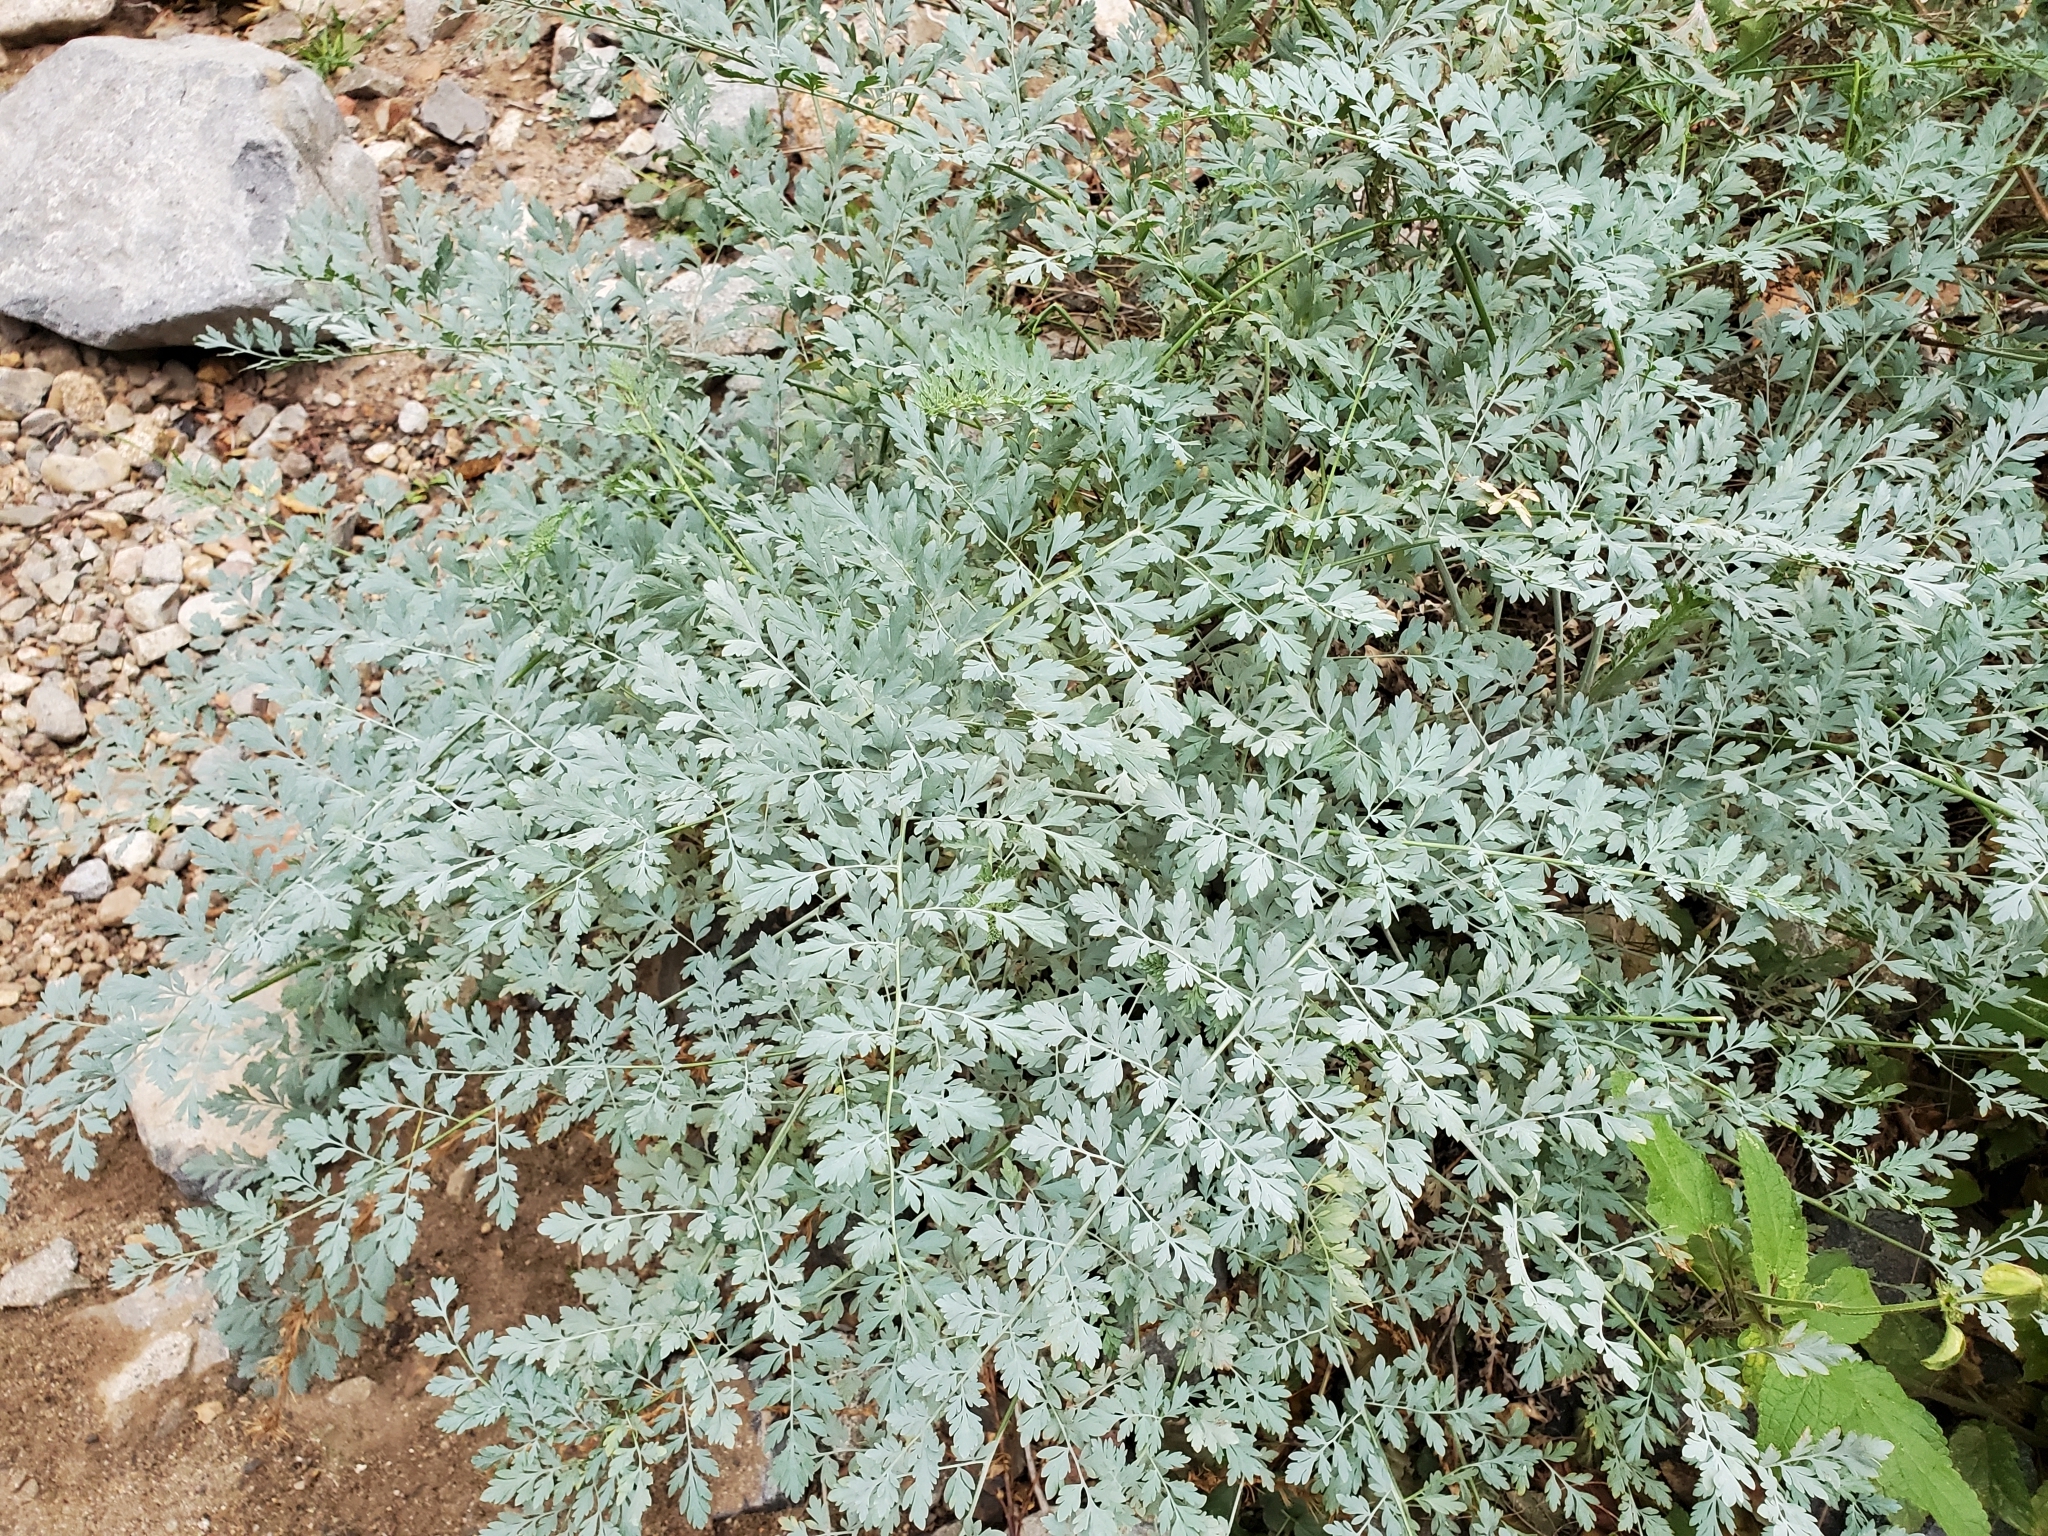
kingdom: Plantae
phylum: Tracheophyta
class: Magnoliopsida
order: Ranunculales
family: Papaveraceae
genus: Ehrendorferia
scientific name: Ehrendorferia chrysantha
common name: Golden eardrops
